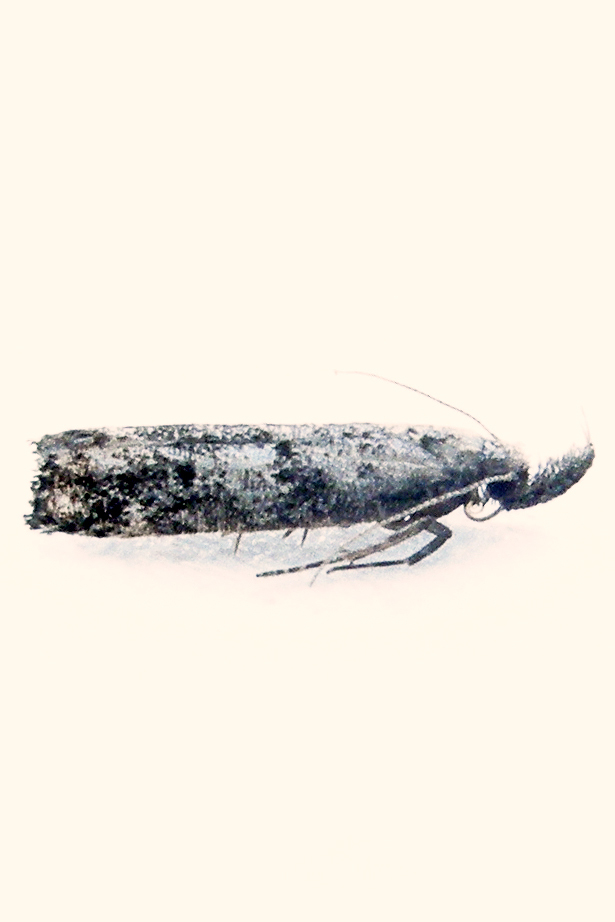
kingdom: Animalia
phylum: Arthropoda
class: Insecta
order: Lepidoptera
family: Gelechiidae
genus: Dichomeris
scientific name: Dichomeris inversella
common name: Inverse dichomeris moth
